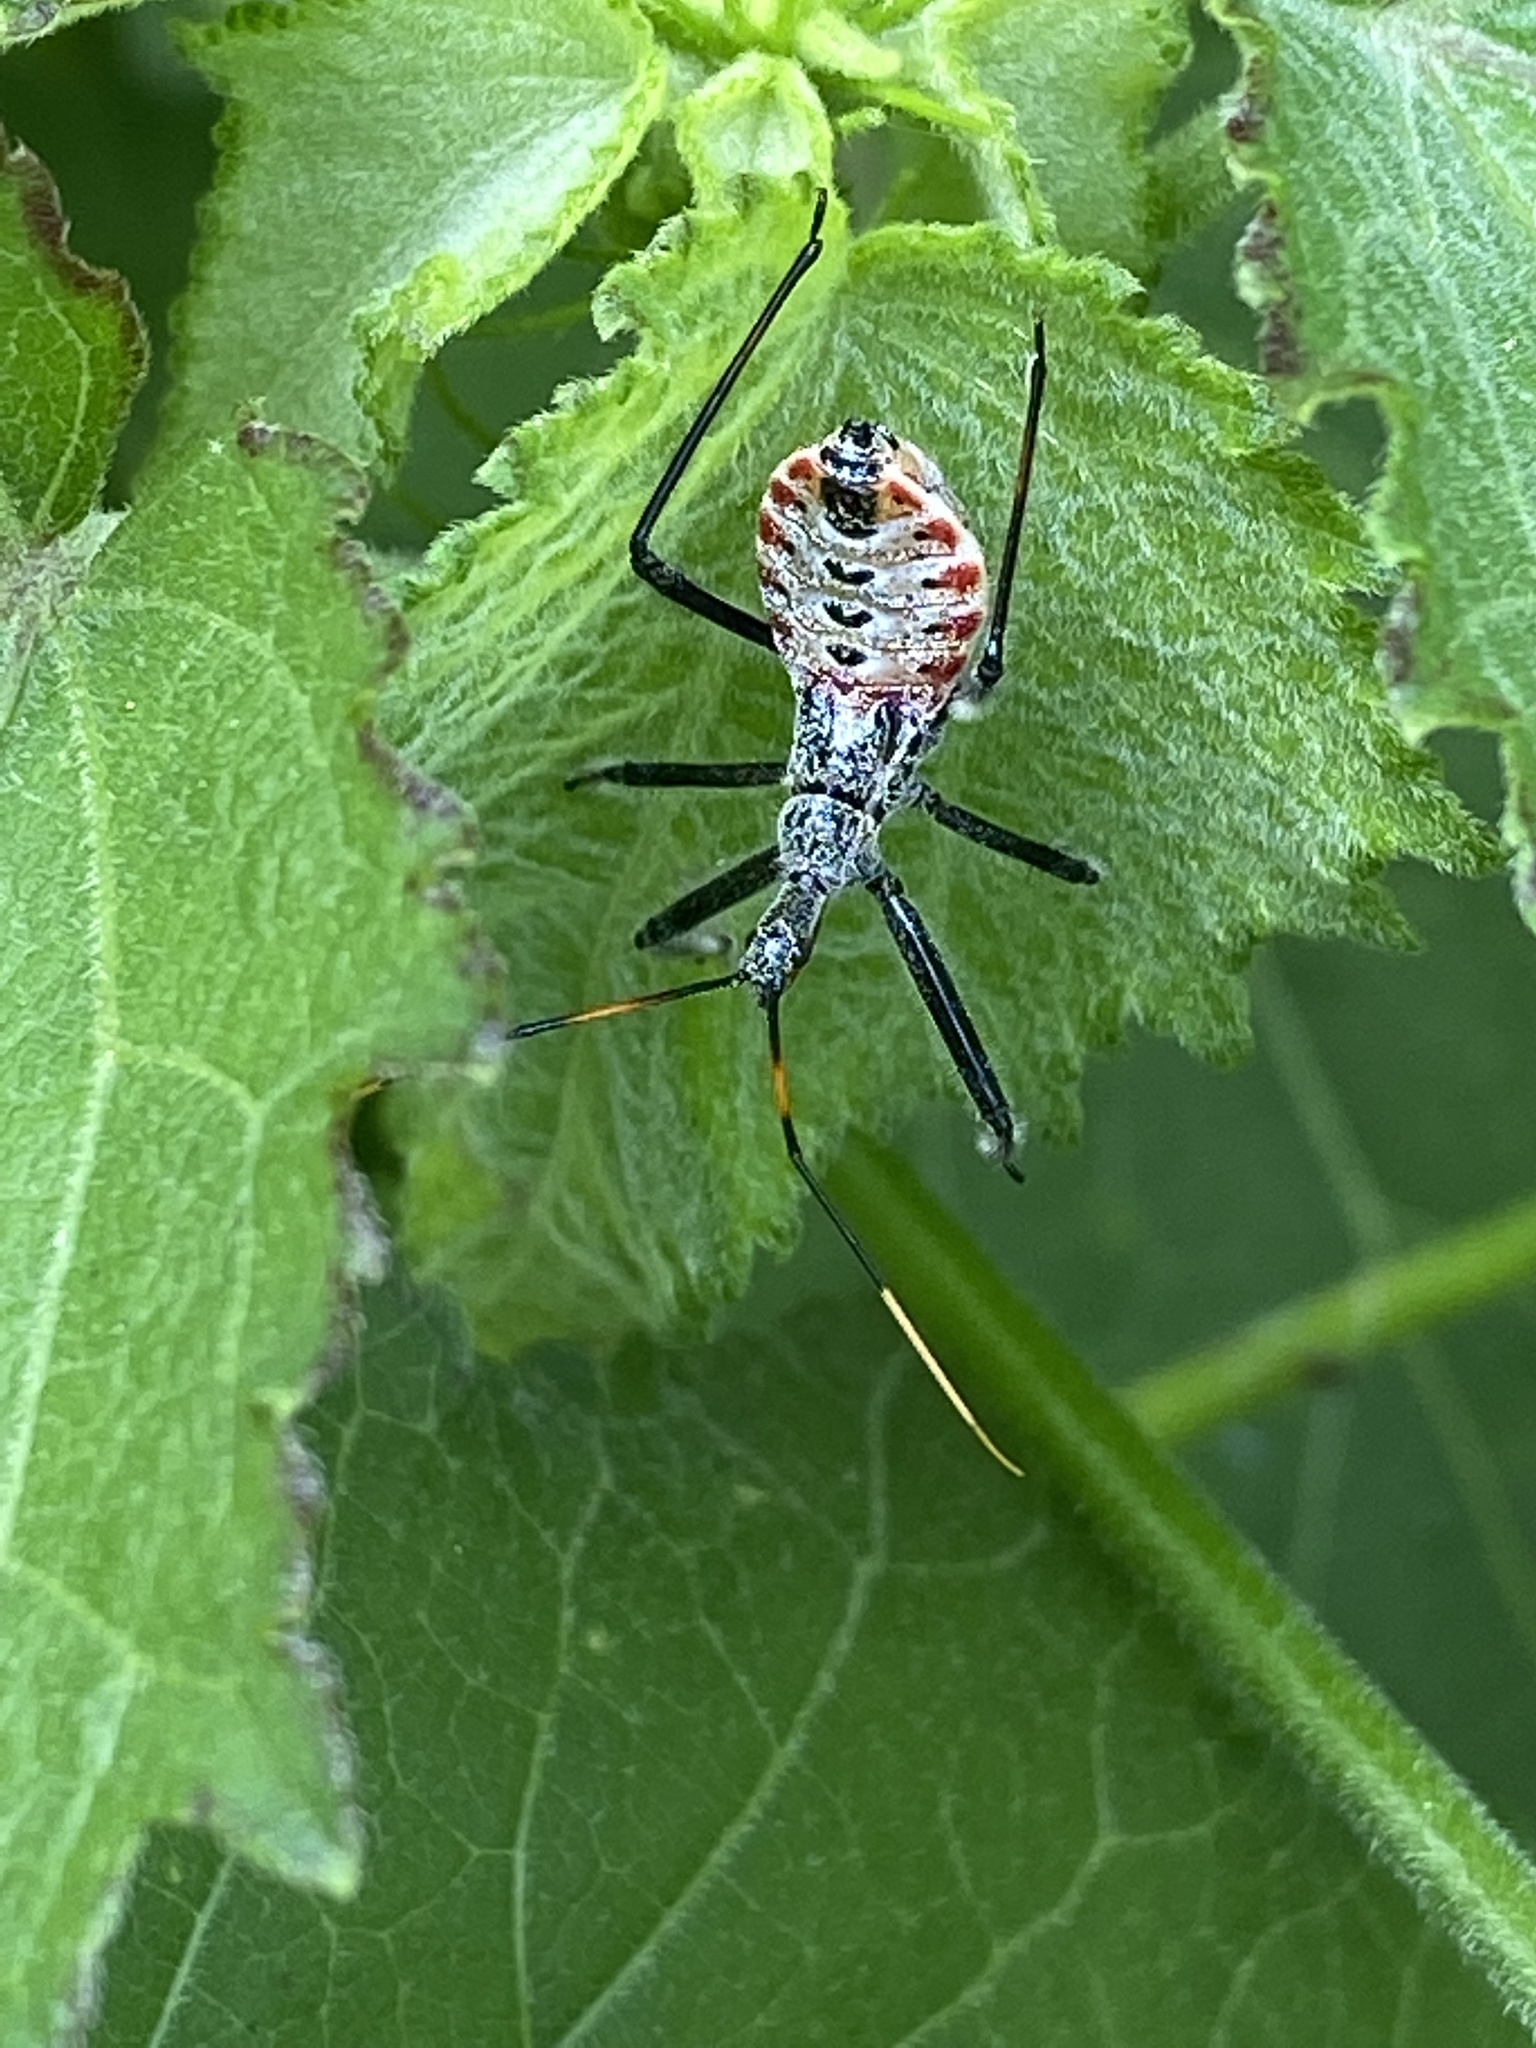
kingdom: Animalia
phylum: Arthropoda
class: Insecta
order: Hemiptera
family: Reduviidae
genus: Arilus
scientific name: Arilus cristatus
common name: North american wheel bug
